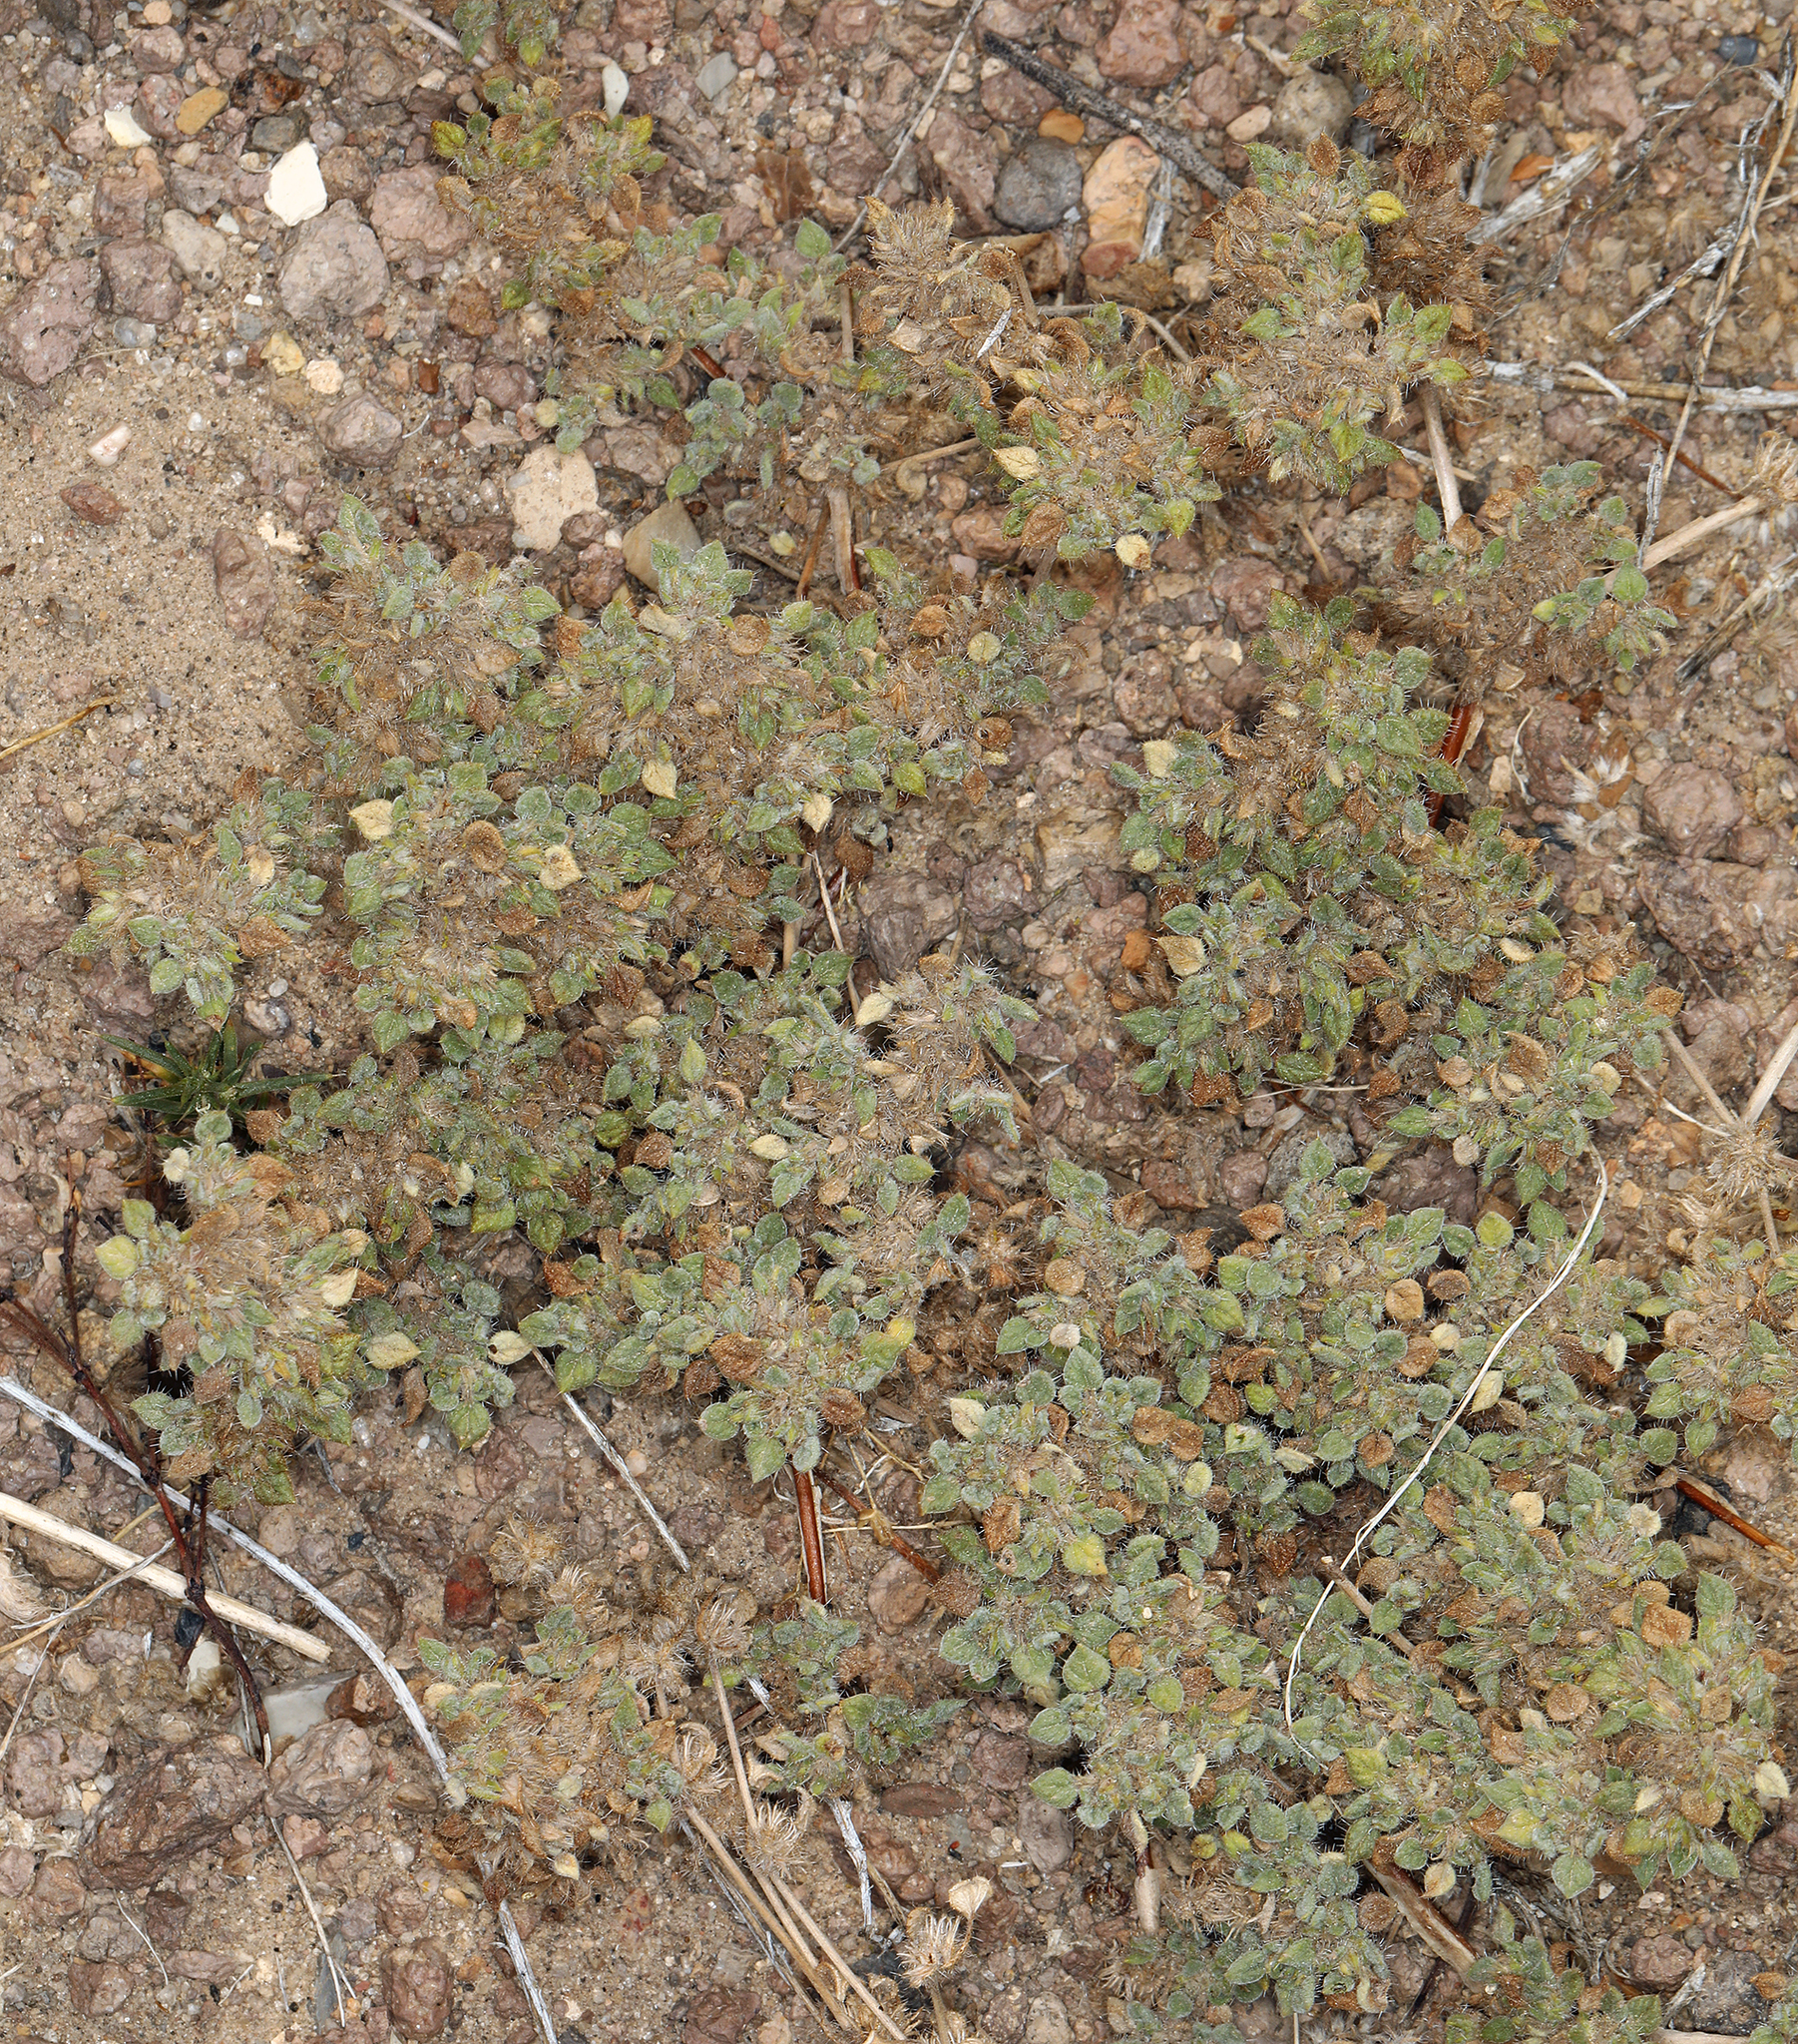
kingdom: Plantae
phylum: Tracheophyta
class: Magnoliopsida
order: Boraginales
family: Ehretiaceae
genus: Tiquilia
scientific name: Tiquilia nuttallii
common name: Rosette tiquilia
